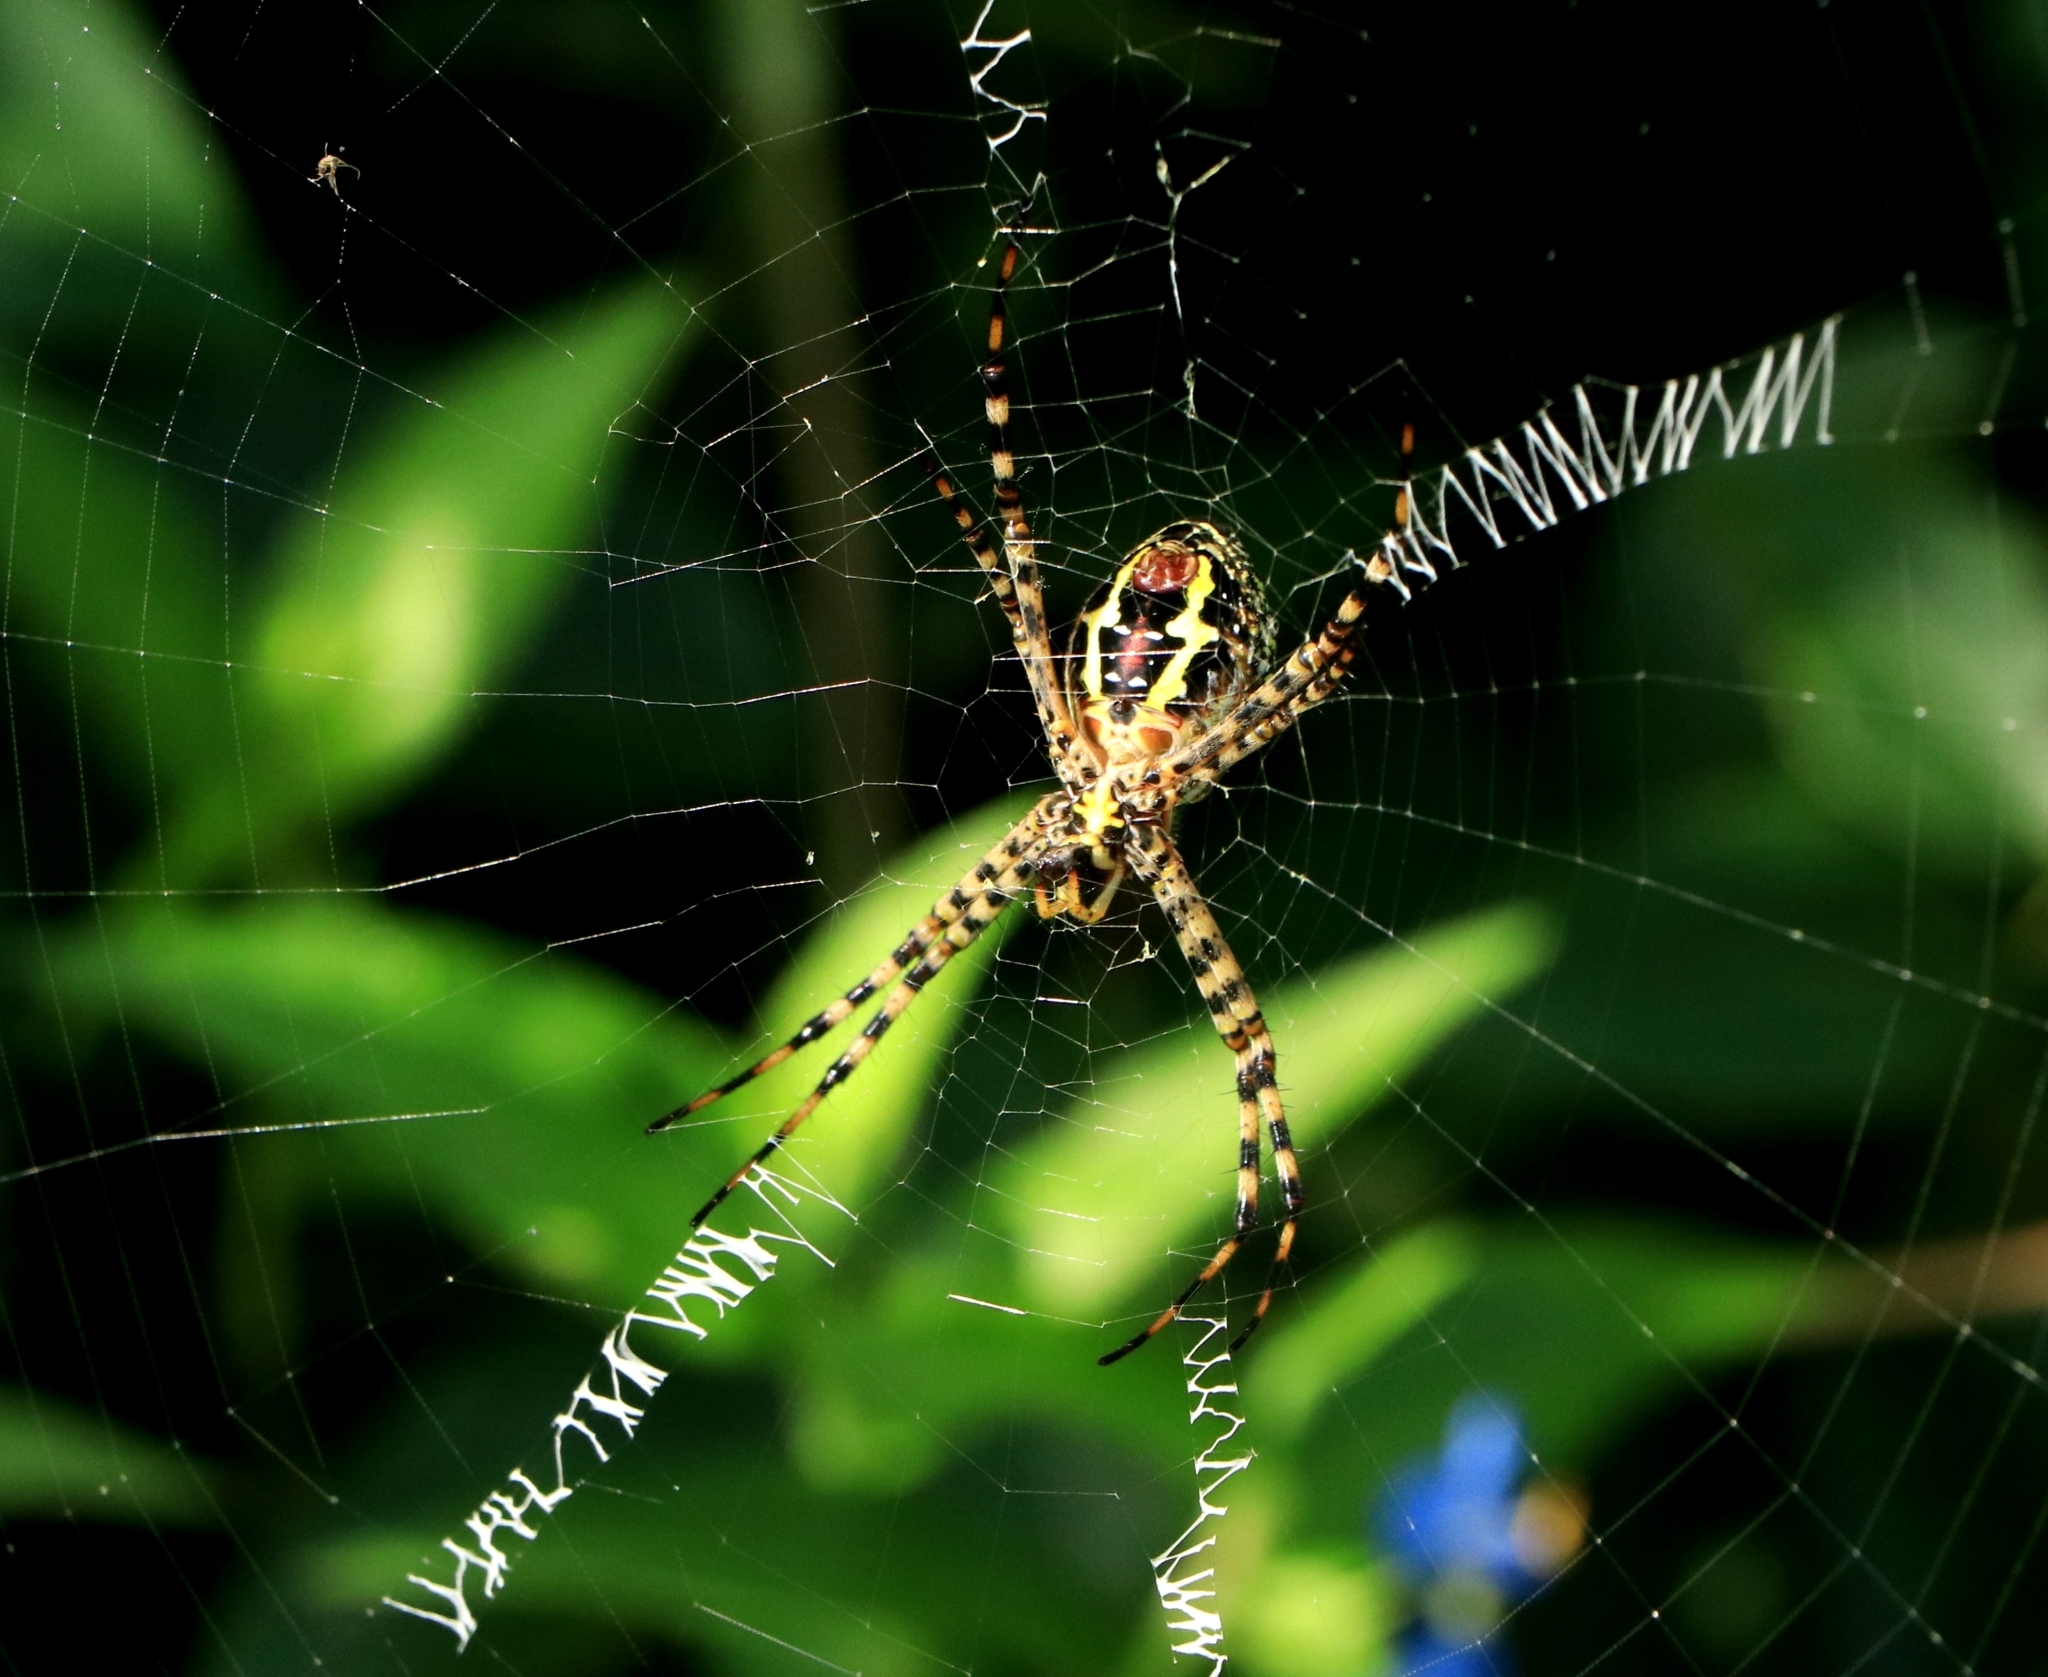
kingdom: Animalia
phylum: Arthropoda
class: Arachnida
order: Araneae
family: Araneidae
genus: Argiope
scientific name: Argiope aemula
